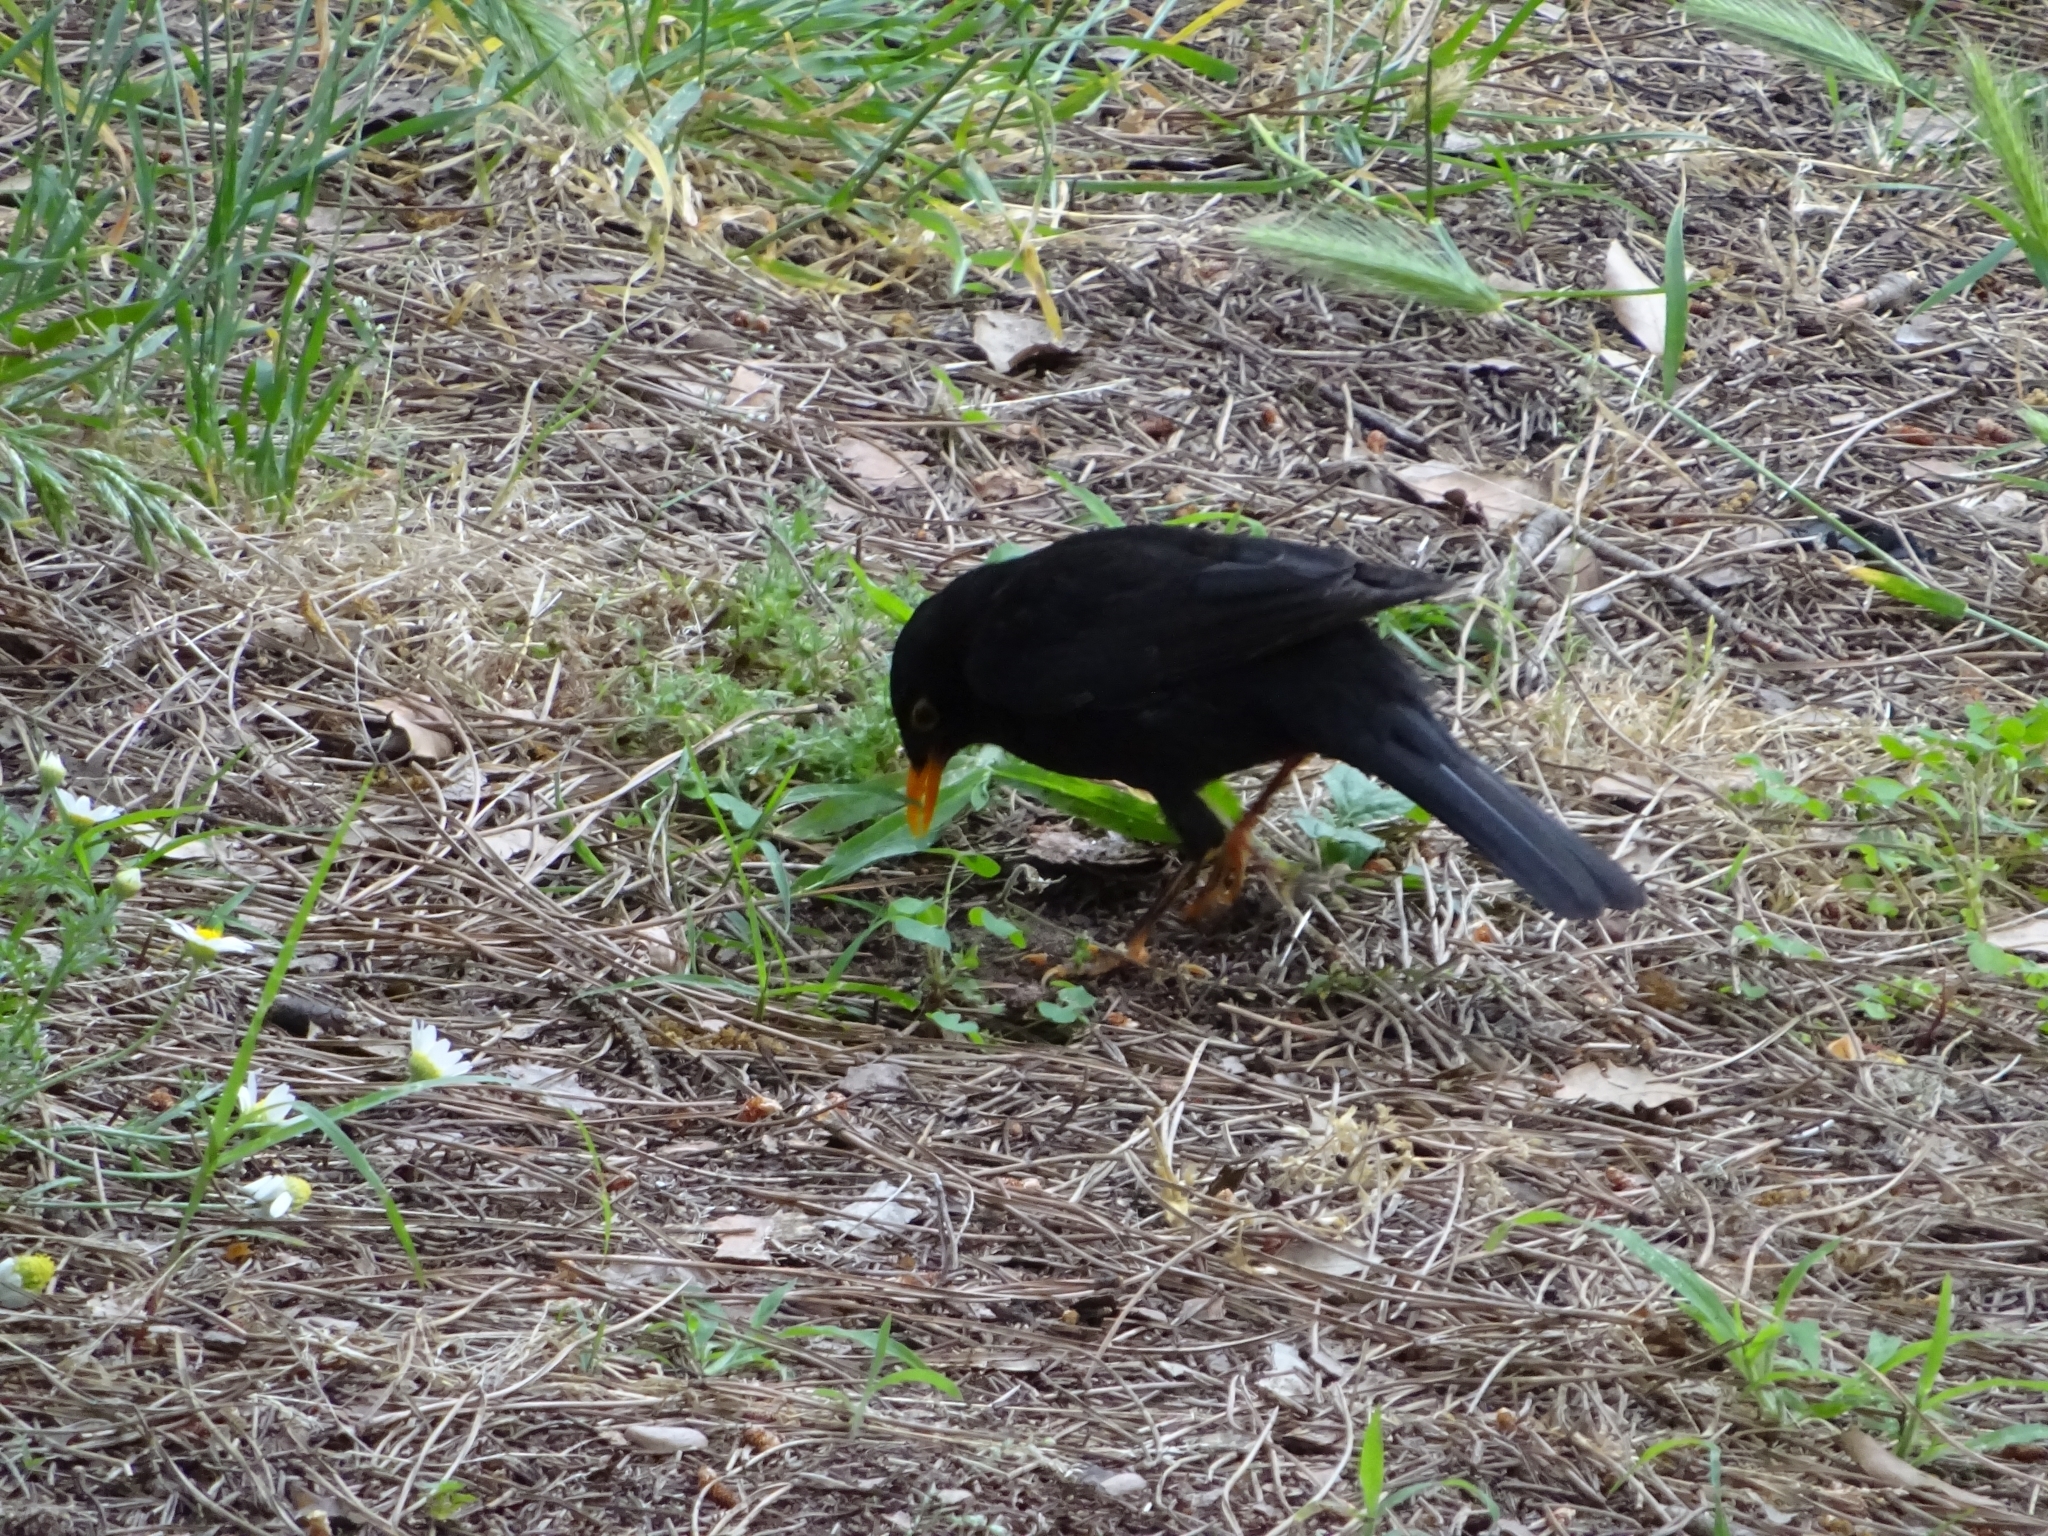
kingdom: Animalia
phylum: Chordata
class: Aves
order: Passeriformes
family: Turdidae
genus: Turdus
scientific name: Turdus merula
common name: Common blackbird
